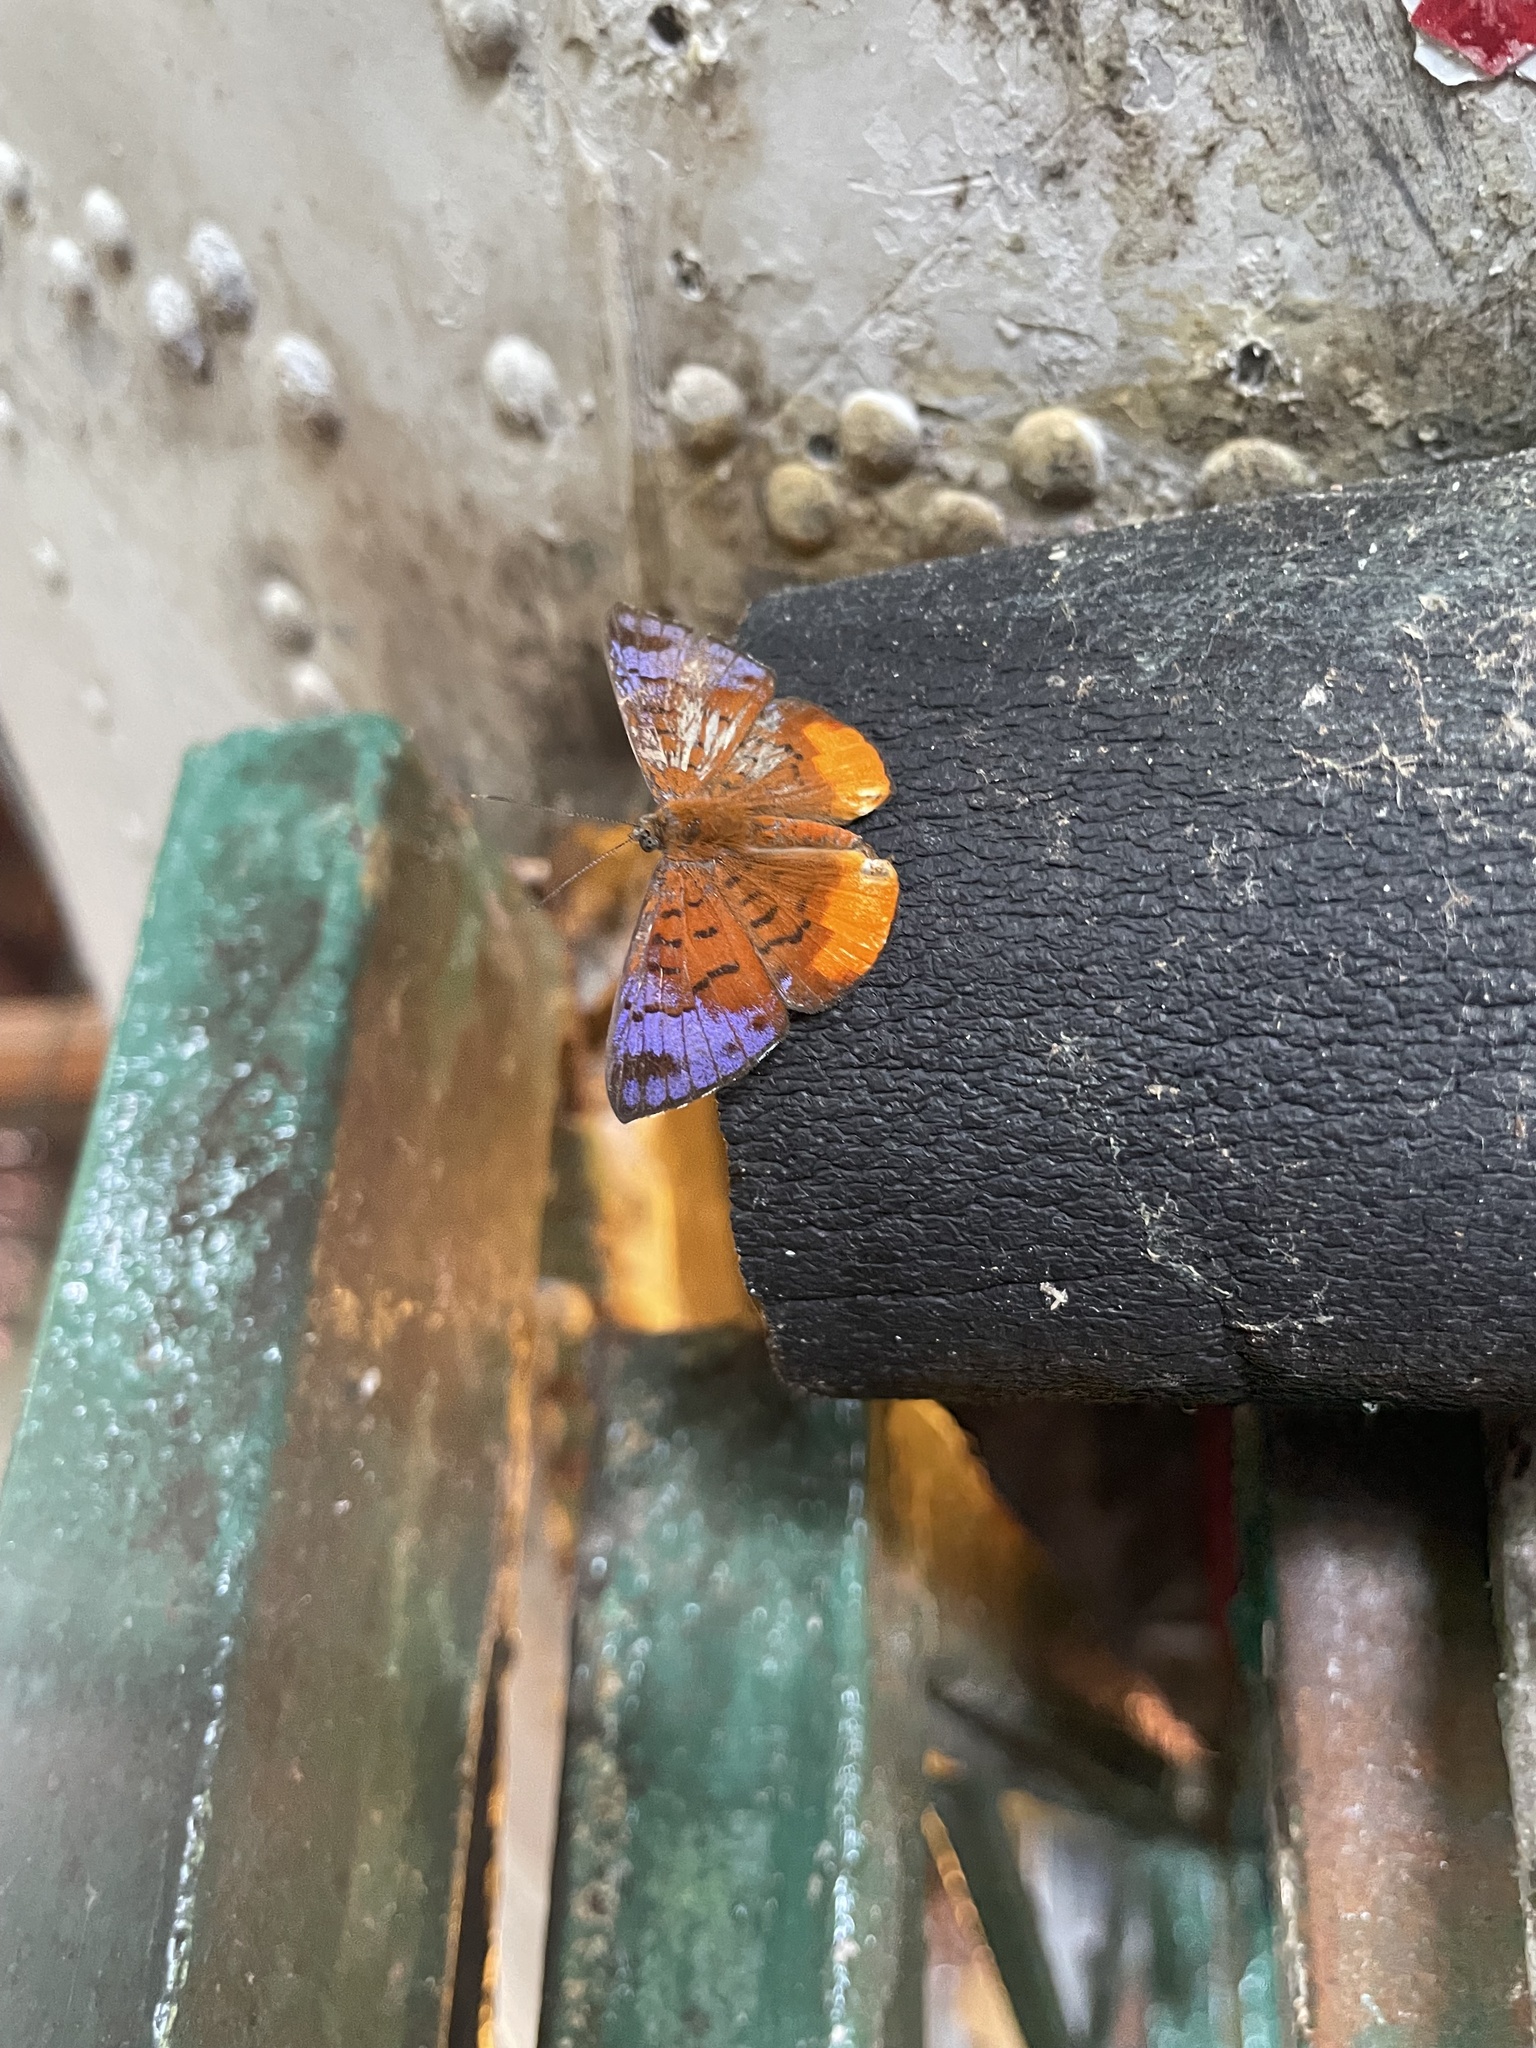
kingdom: Animalia
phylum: Arthropoda
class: Insecta
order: Lepidoptera
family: Riodinidae
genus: Polystichtis
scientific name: Polystichtis zeurippa
